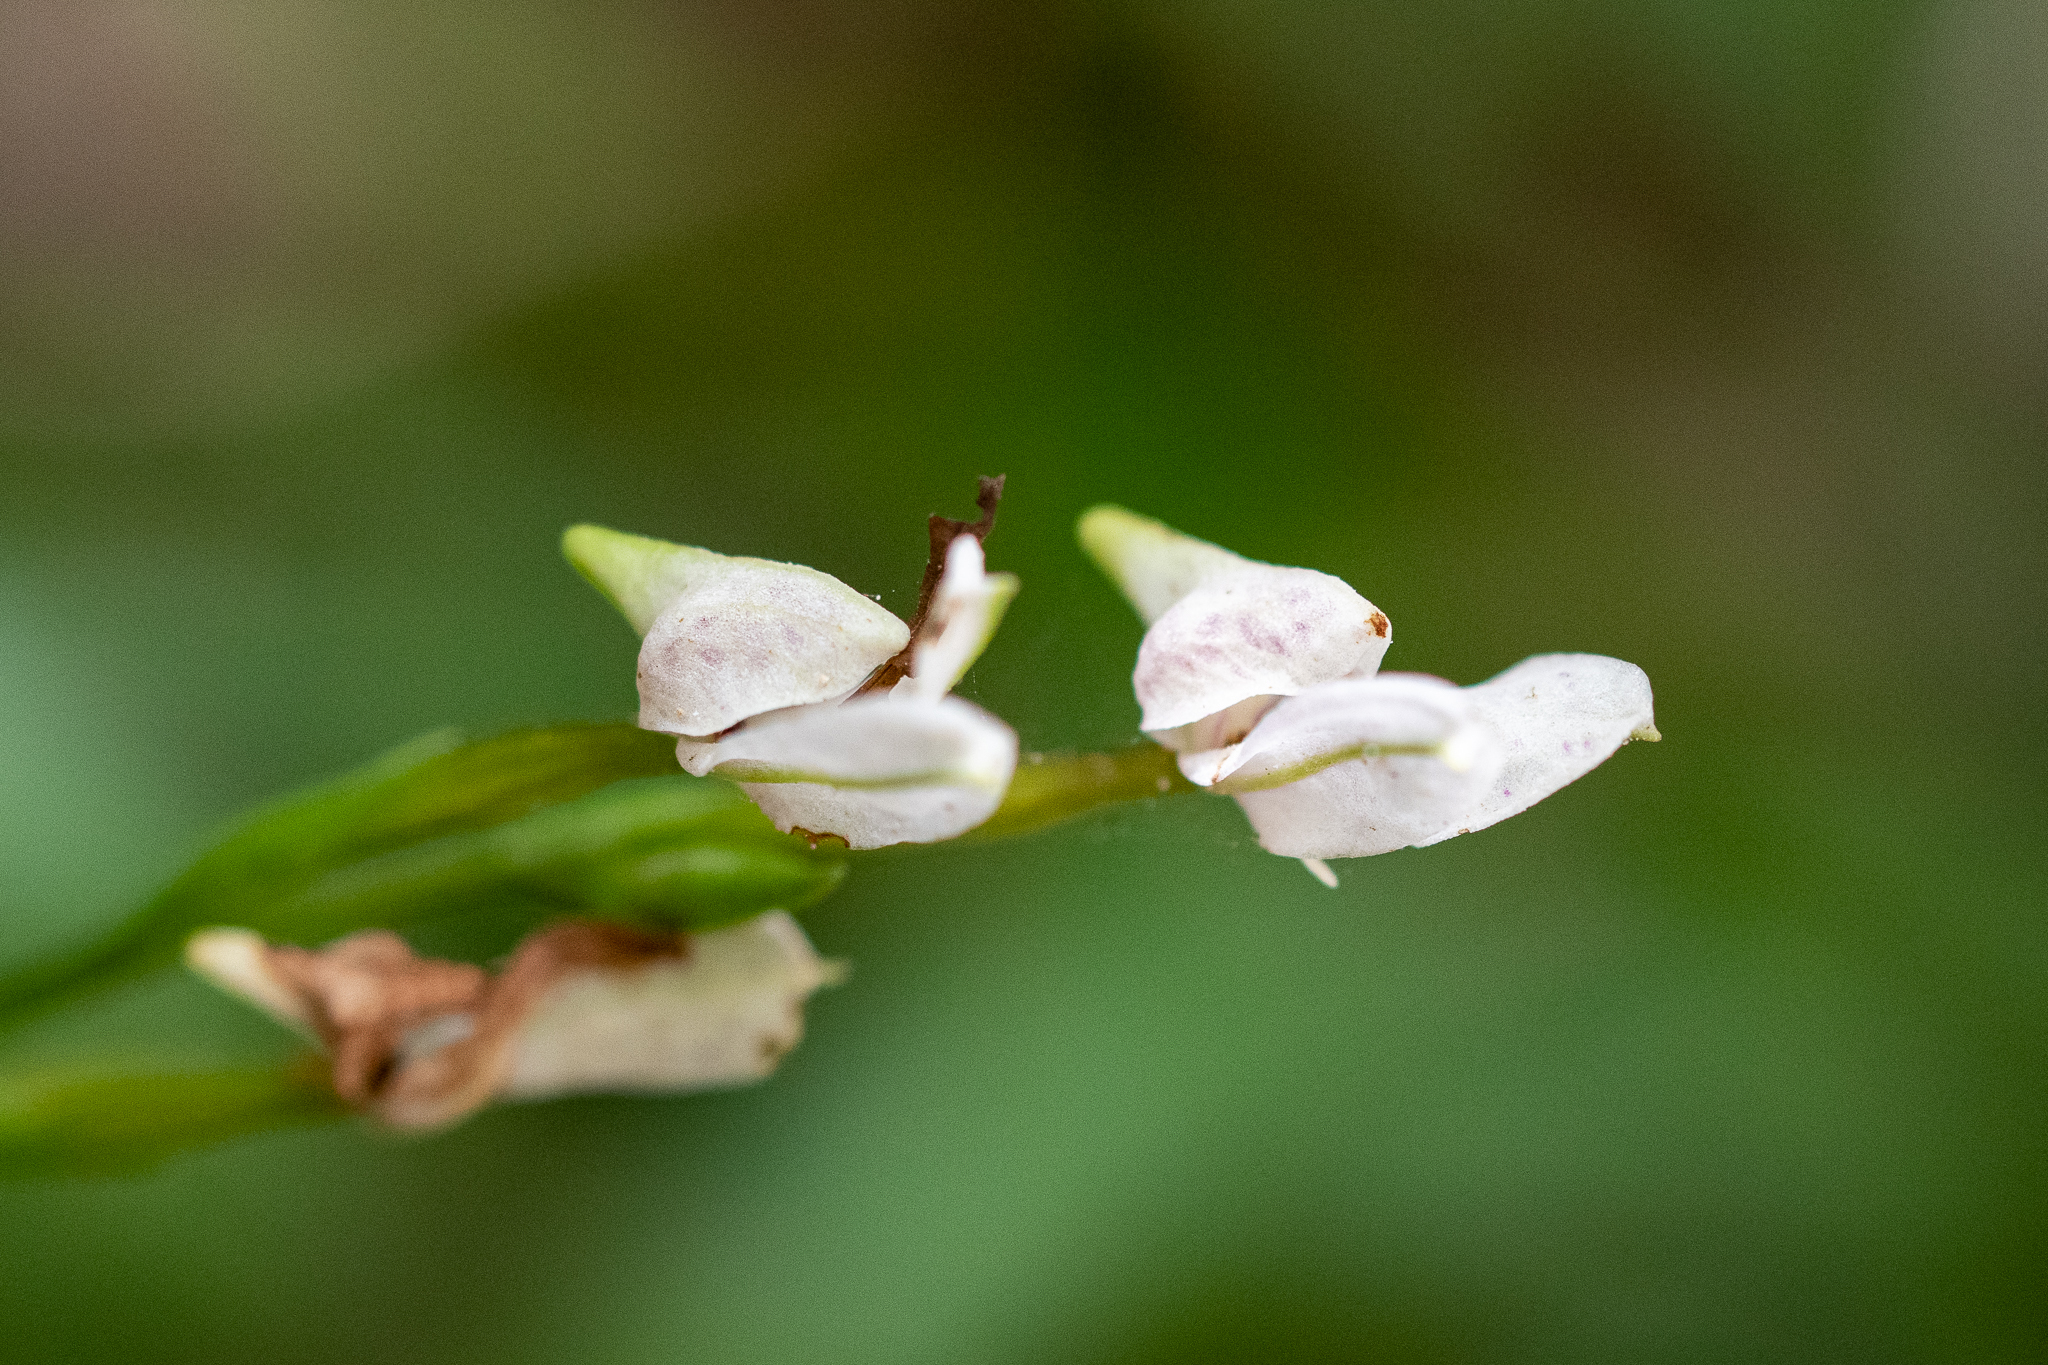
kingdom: Plantae
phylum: Tracheophyta
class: Liliopsida
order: Asparagales
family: Orchidaceae
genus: Disa
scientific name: Disa tripetaloides
